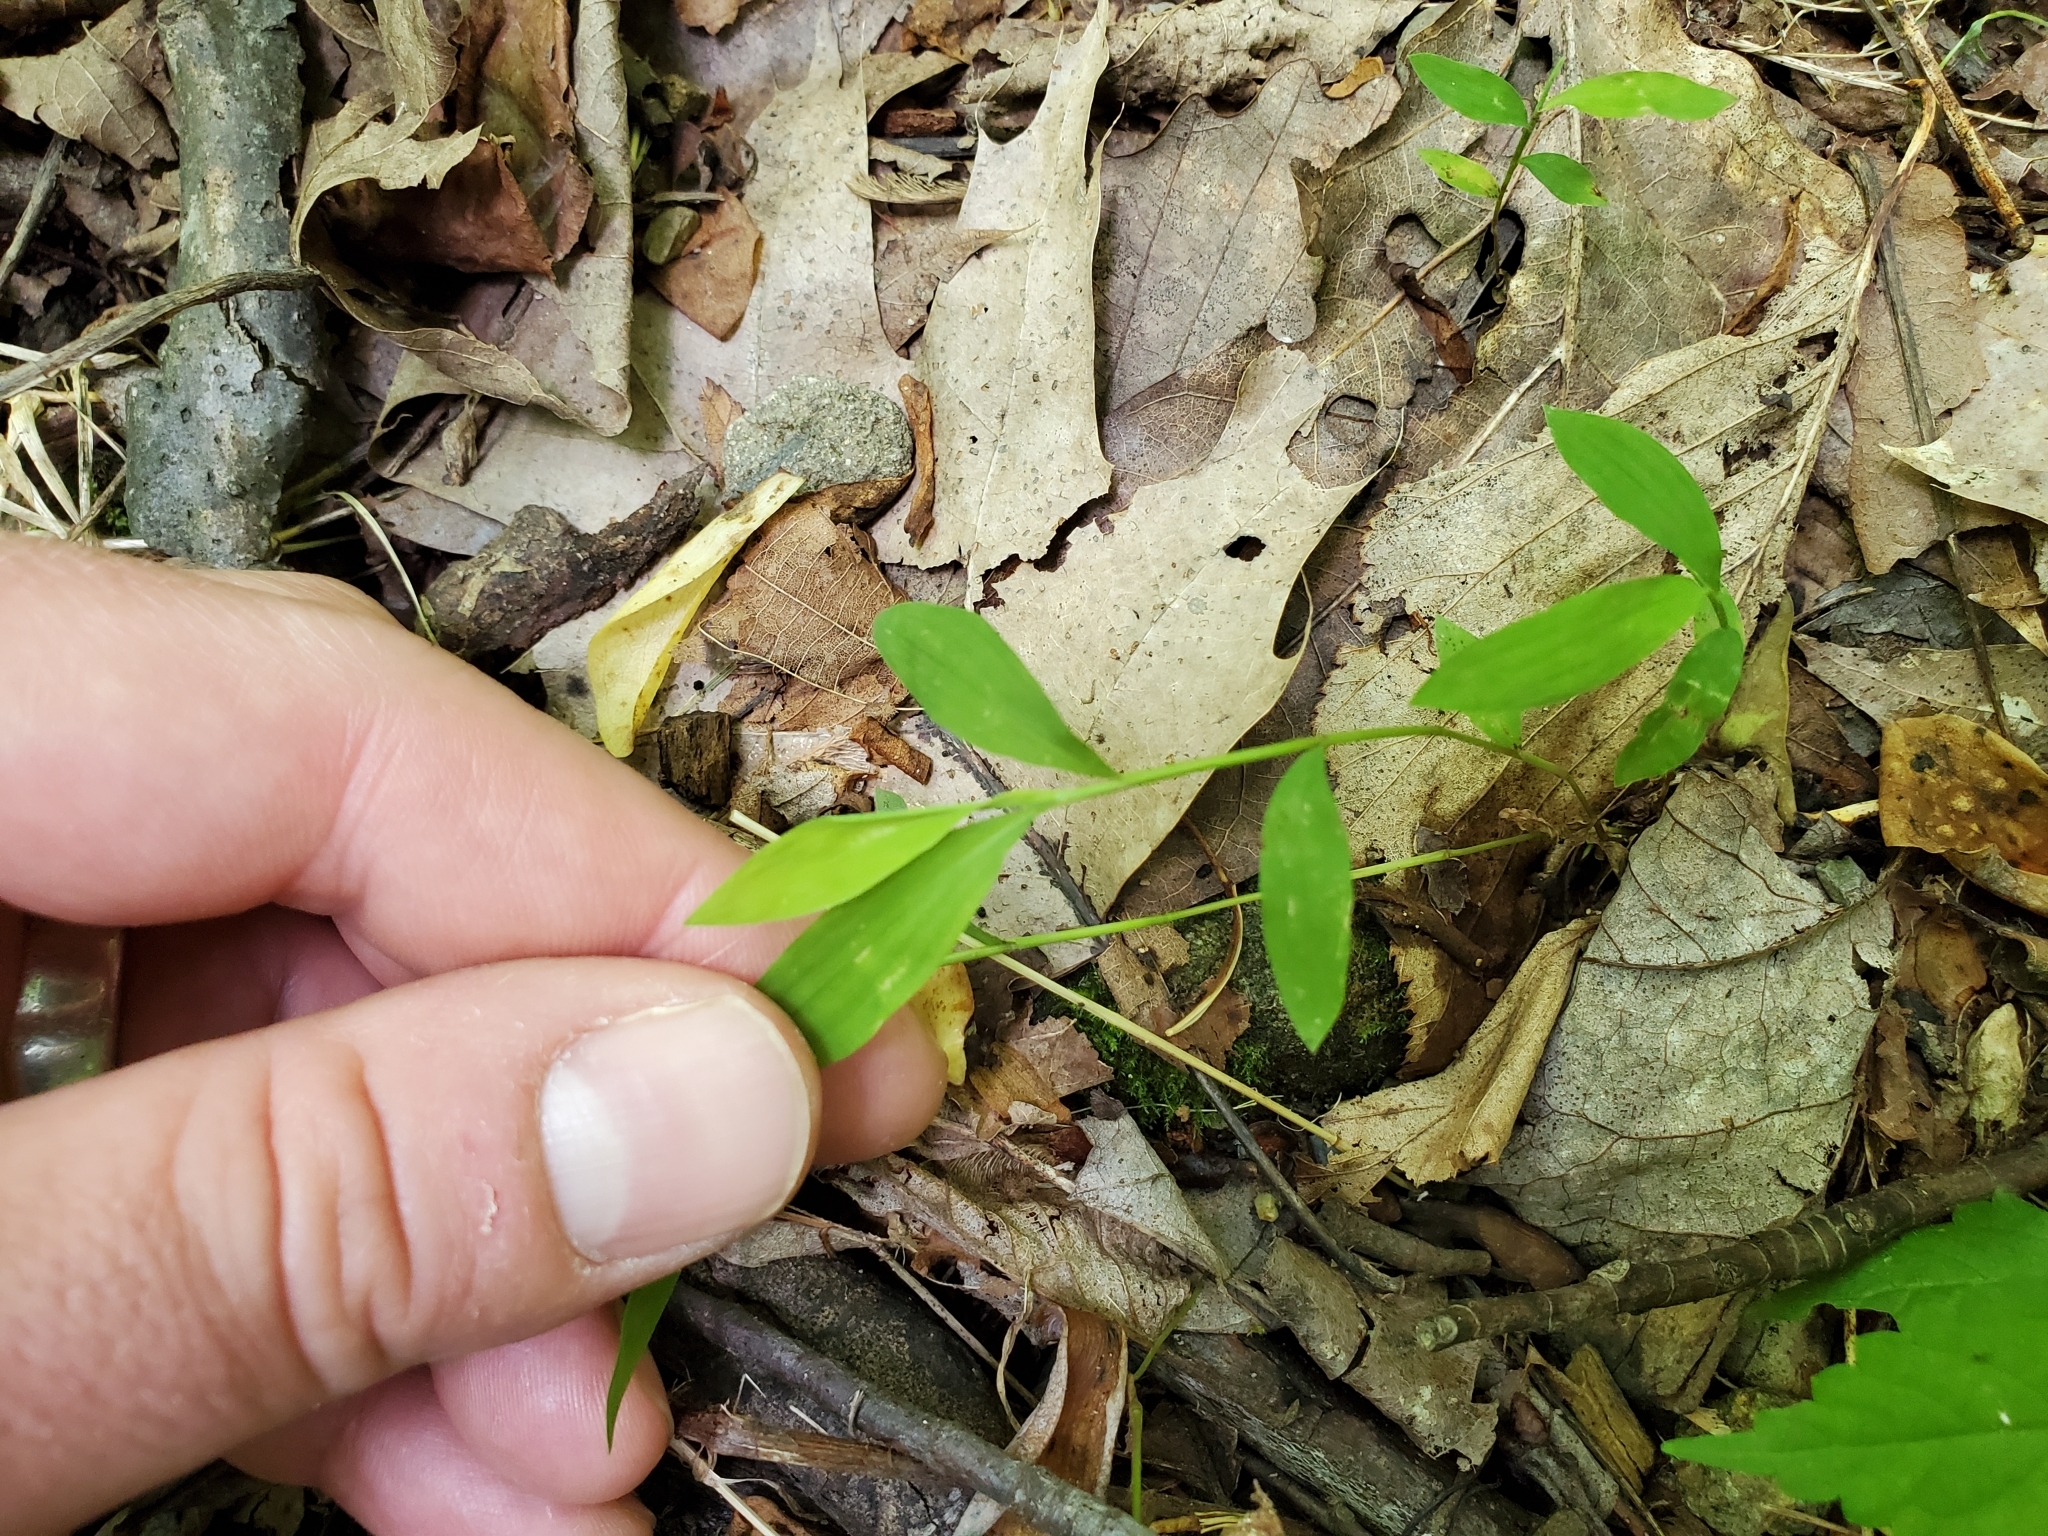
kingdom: Plantae
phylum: Tracheophyta
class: Liliopsida
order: Poales
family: Poaceae
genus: Microstegium
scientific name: Microstegium vimineum
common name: Japanese stiltgrass
